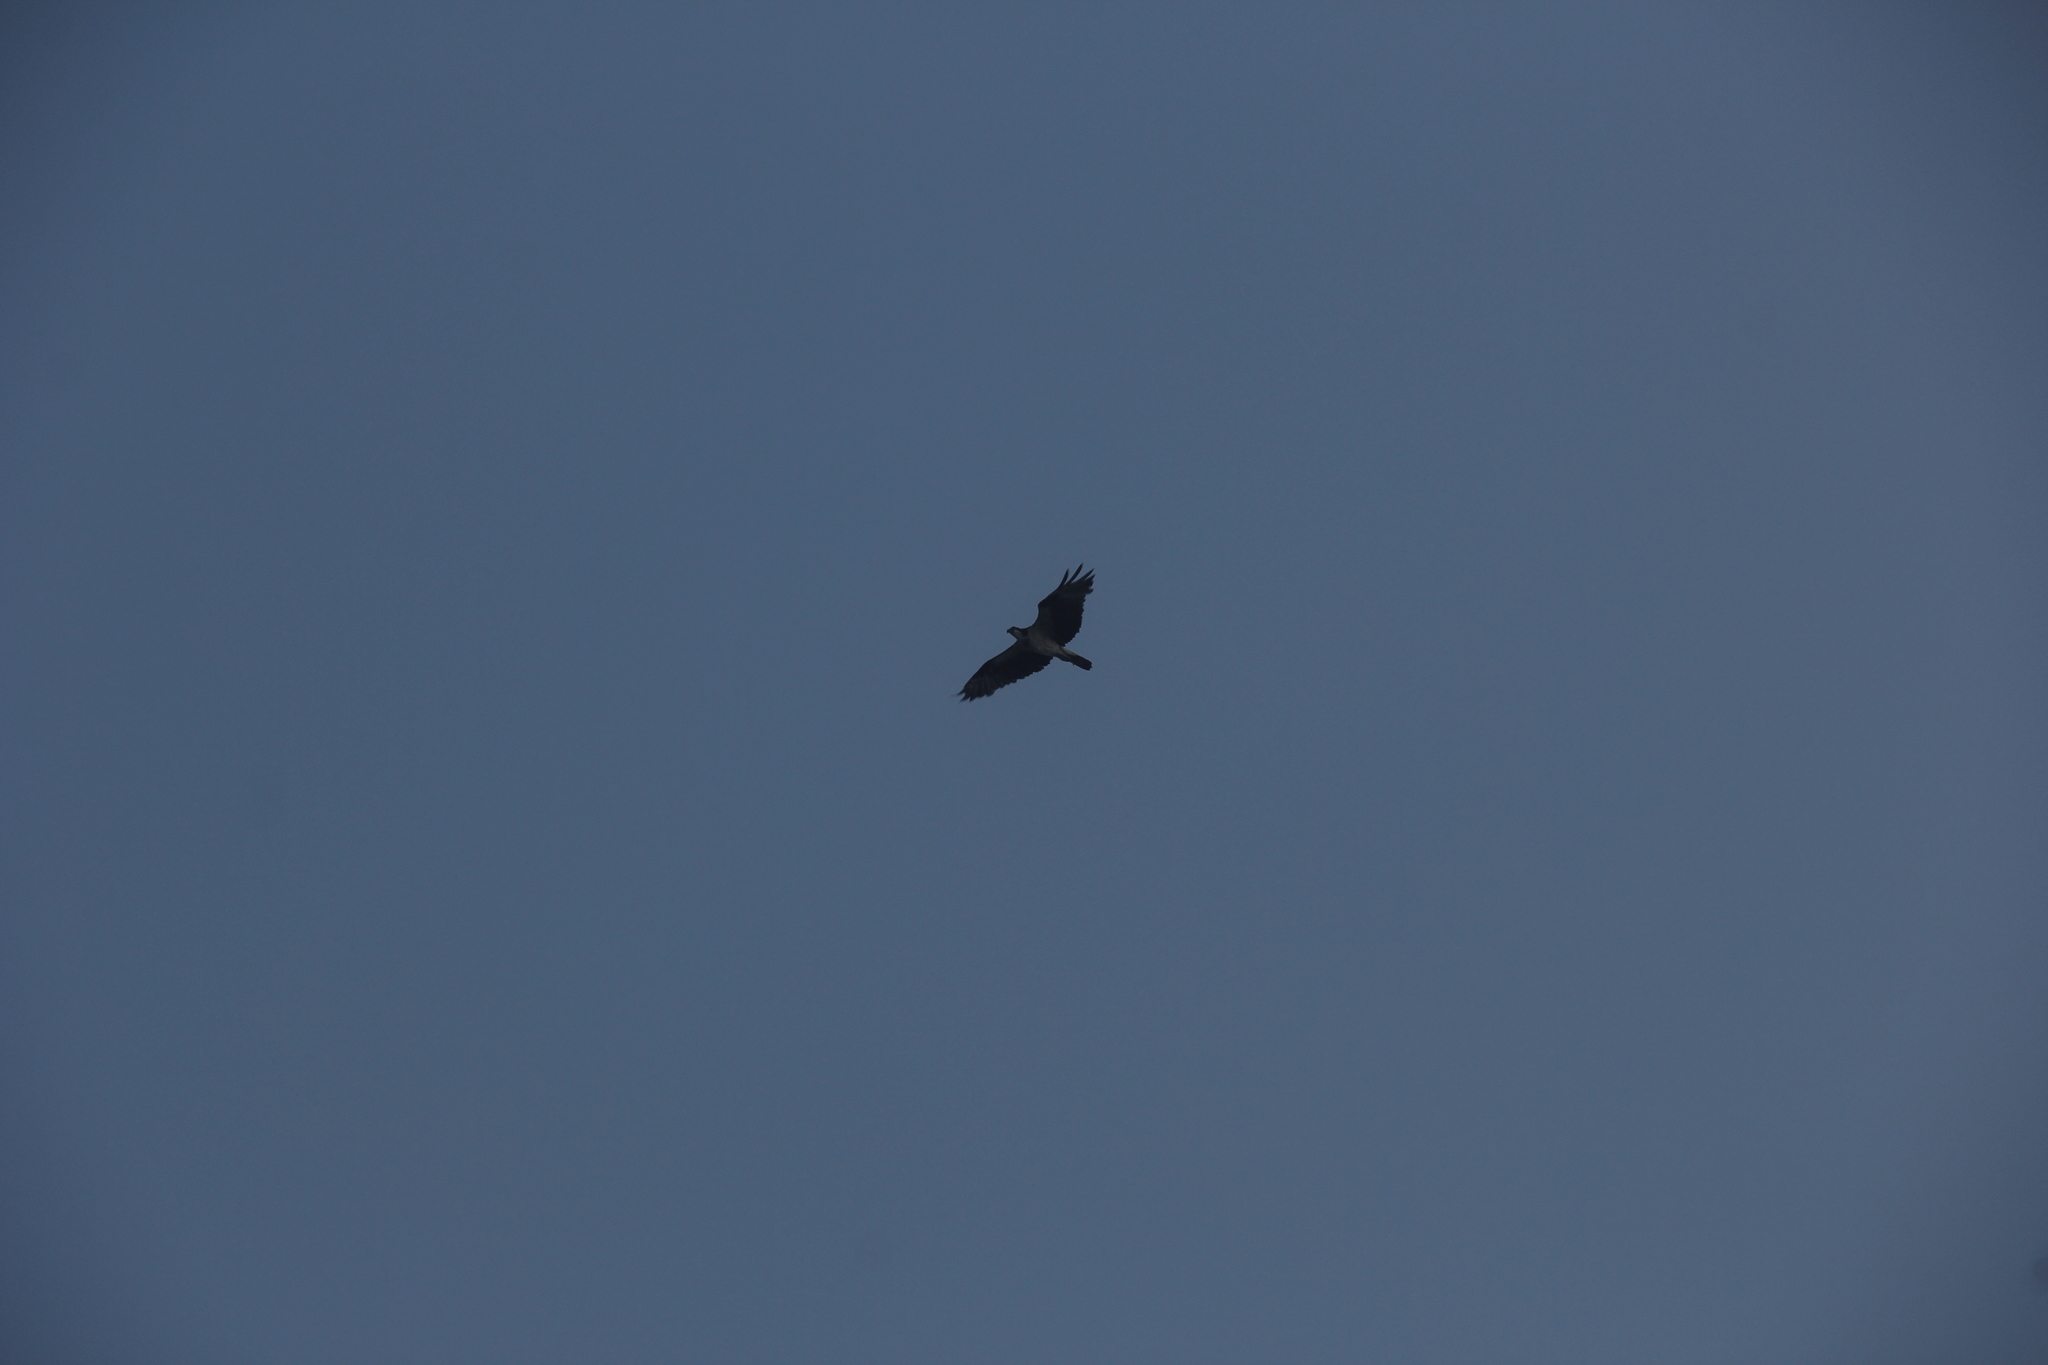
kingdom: Animalia
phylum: Chordata
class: Aves
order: Accipitriformes
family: Pandionidae
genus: Pandion
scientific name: Pandion haliaetus
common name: Osprey
